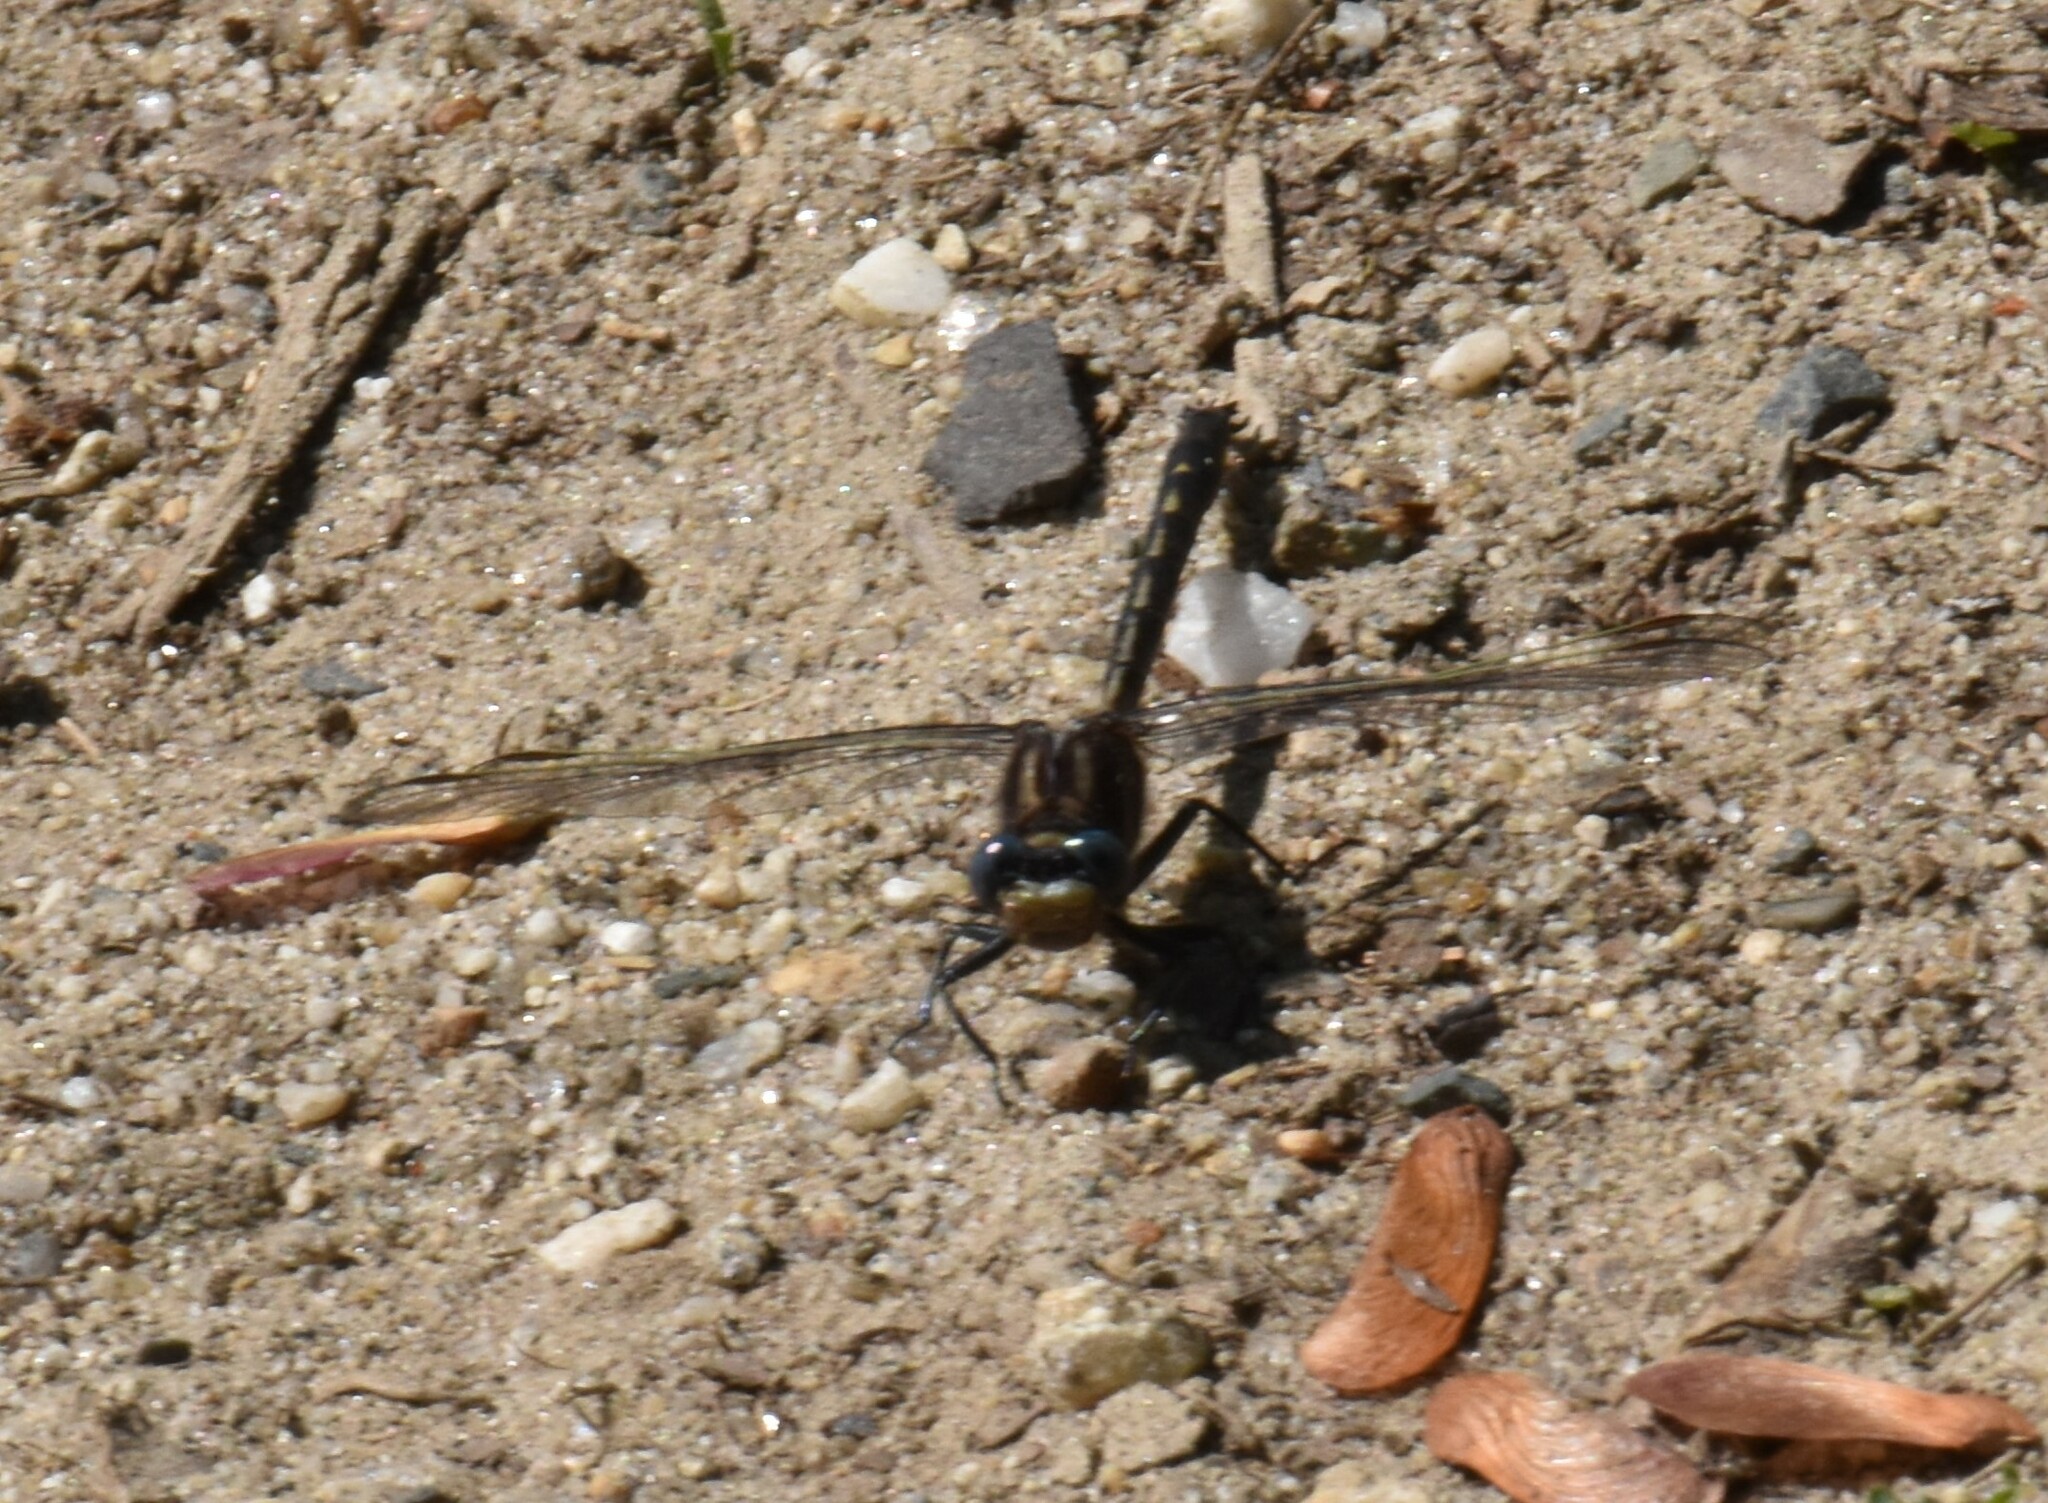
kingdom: Animalia
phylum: Arthropoda
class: Insecta
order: Odonata
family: Gomphidae
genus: Phanogomphus
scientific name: Phanogomphus spicatus
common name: Dusky clubtail
